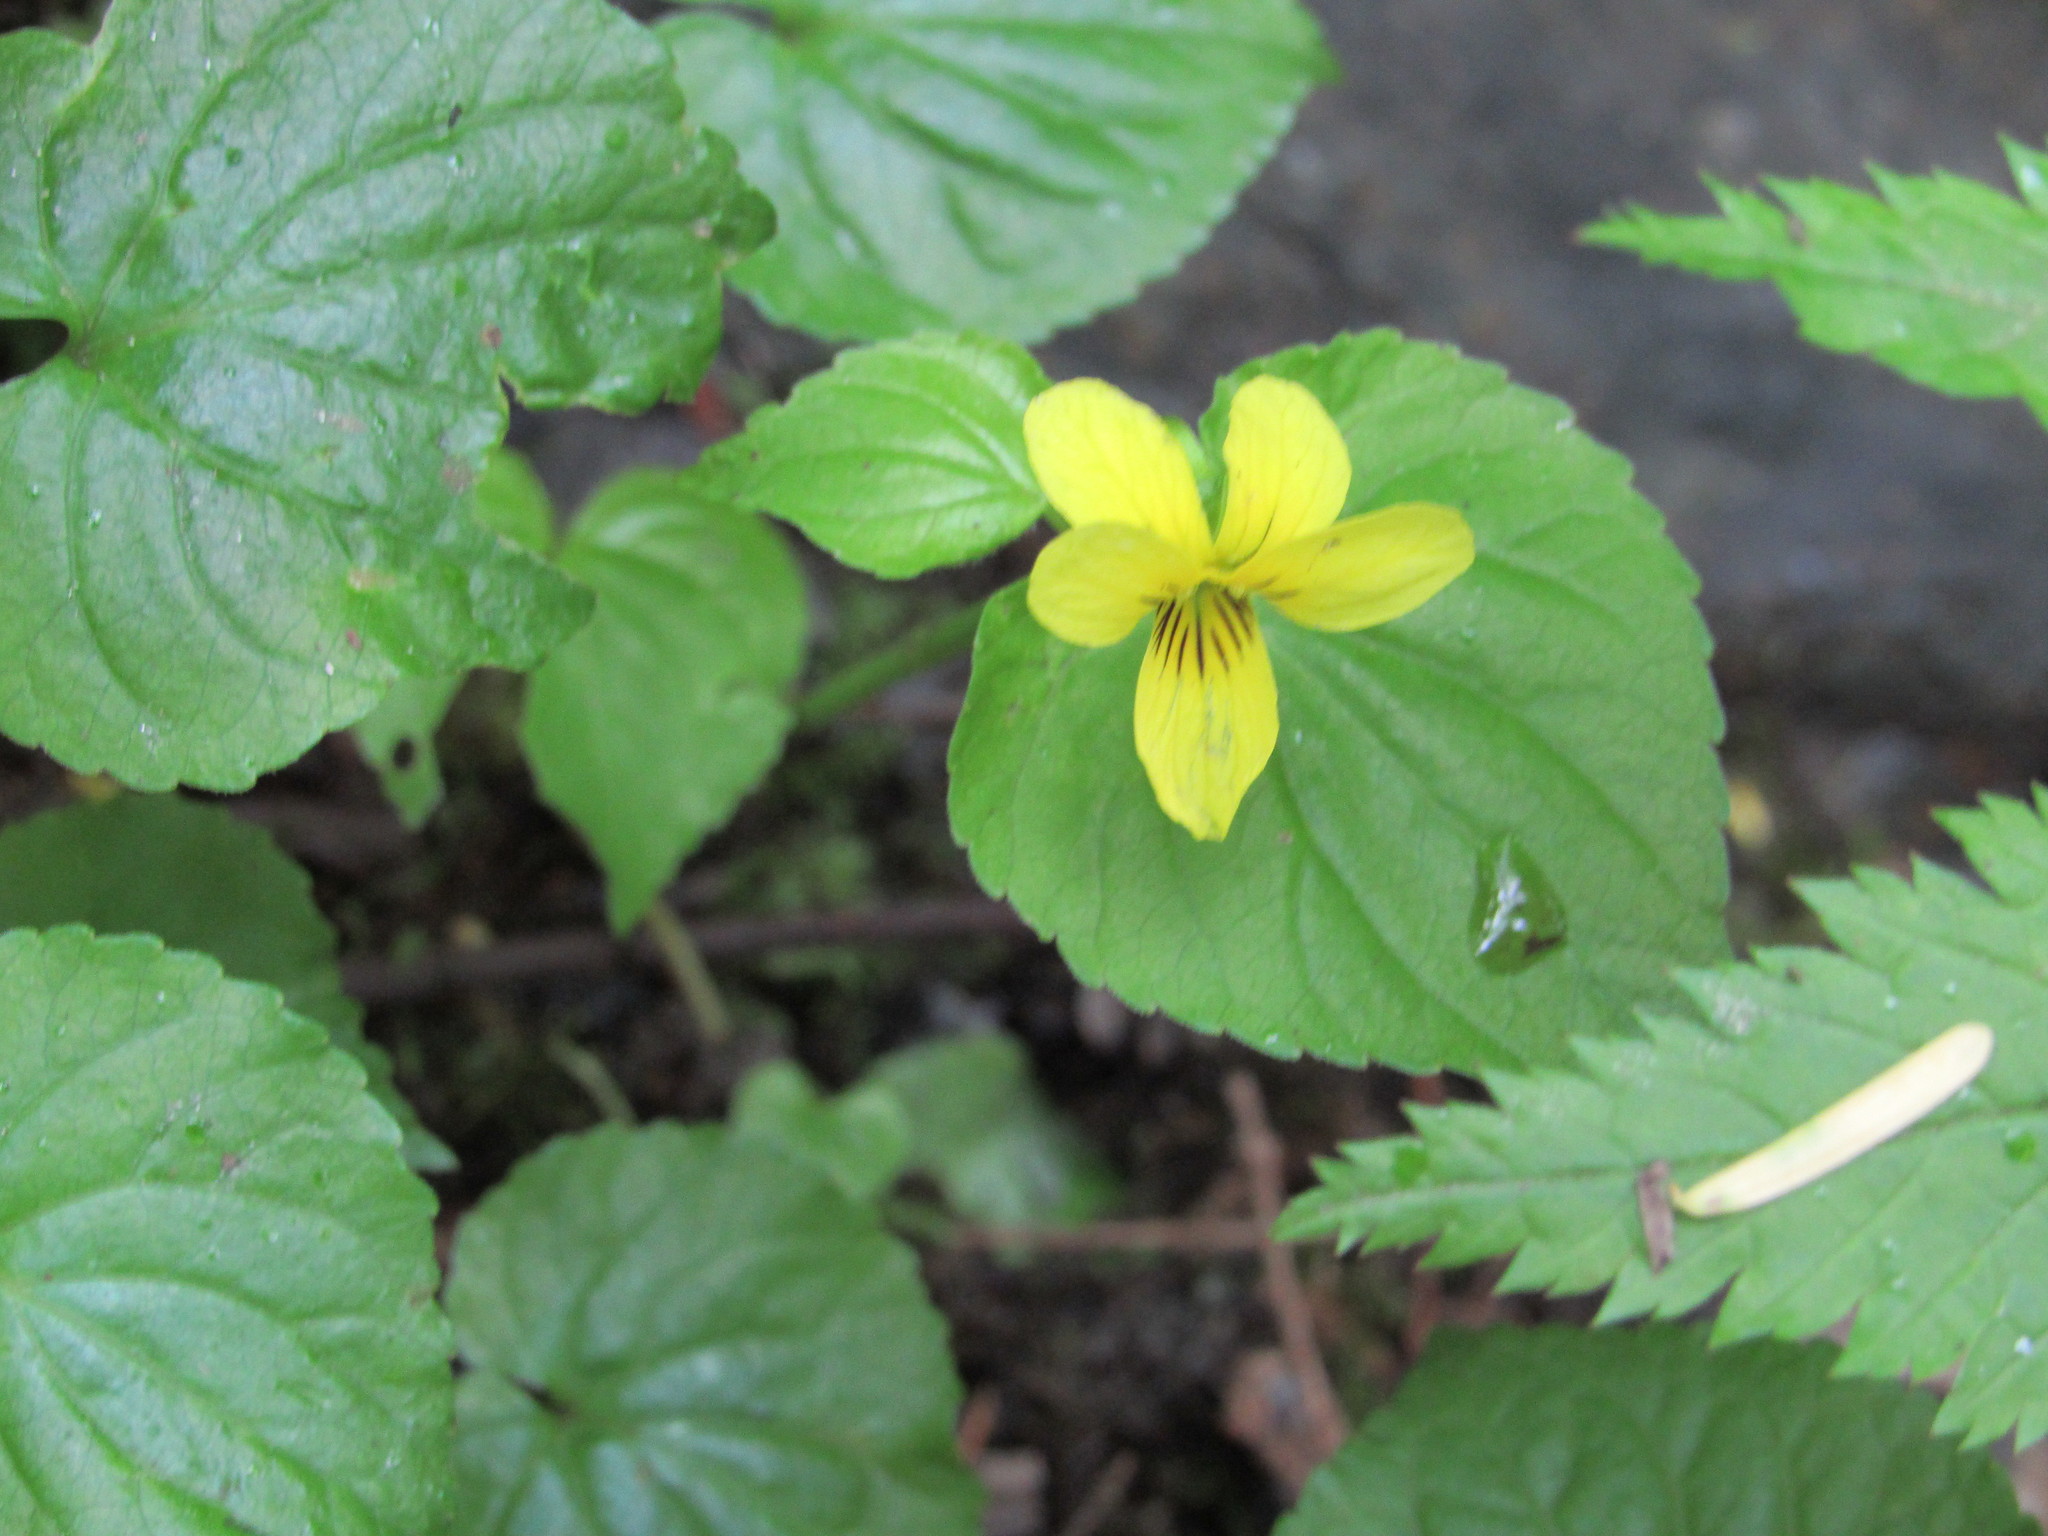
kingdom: Plantae
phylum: Tracheophyta
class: Magnoliopsida
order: Malpighiales
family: Violaceae
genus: Viola
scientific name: Viola glabella
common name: Stream violet
